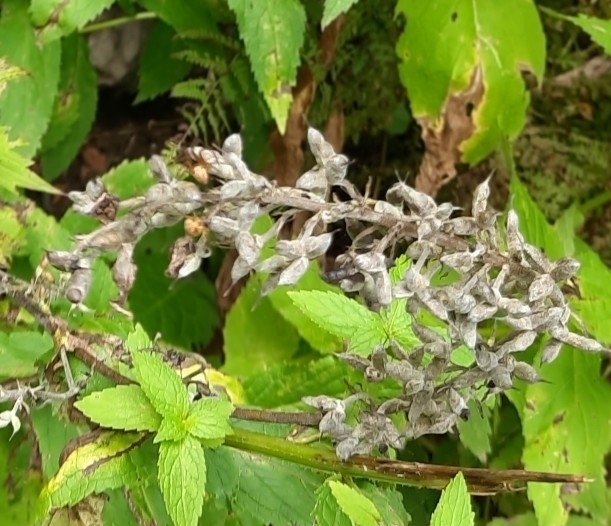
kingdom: Plantae
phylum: Tracheophyta
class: Magnoliopsida
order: Ranunculales
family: Ranunculaceae
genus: Aconitum
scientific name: Aconitum orientale
